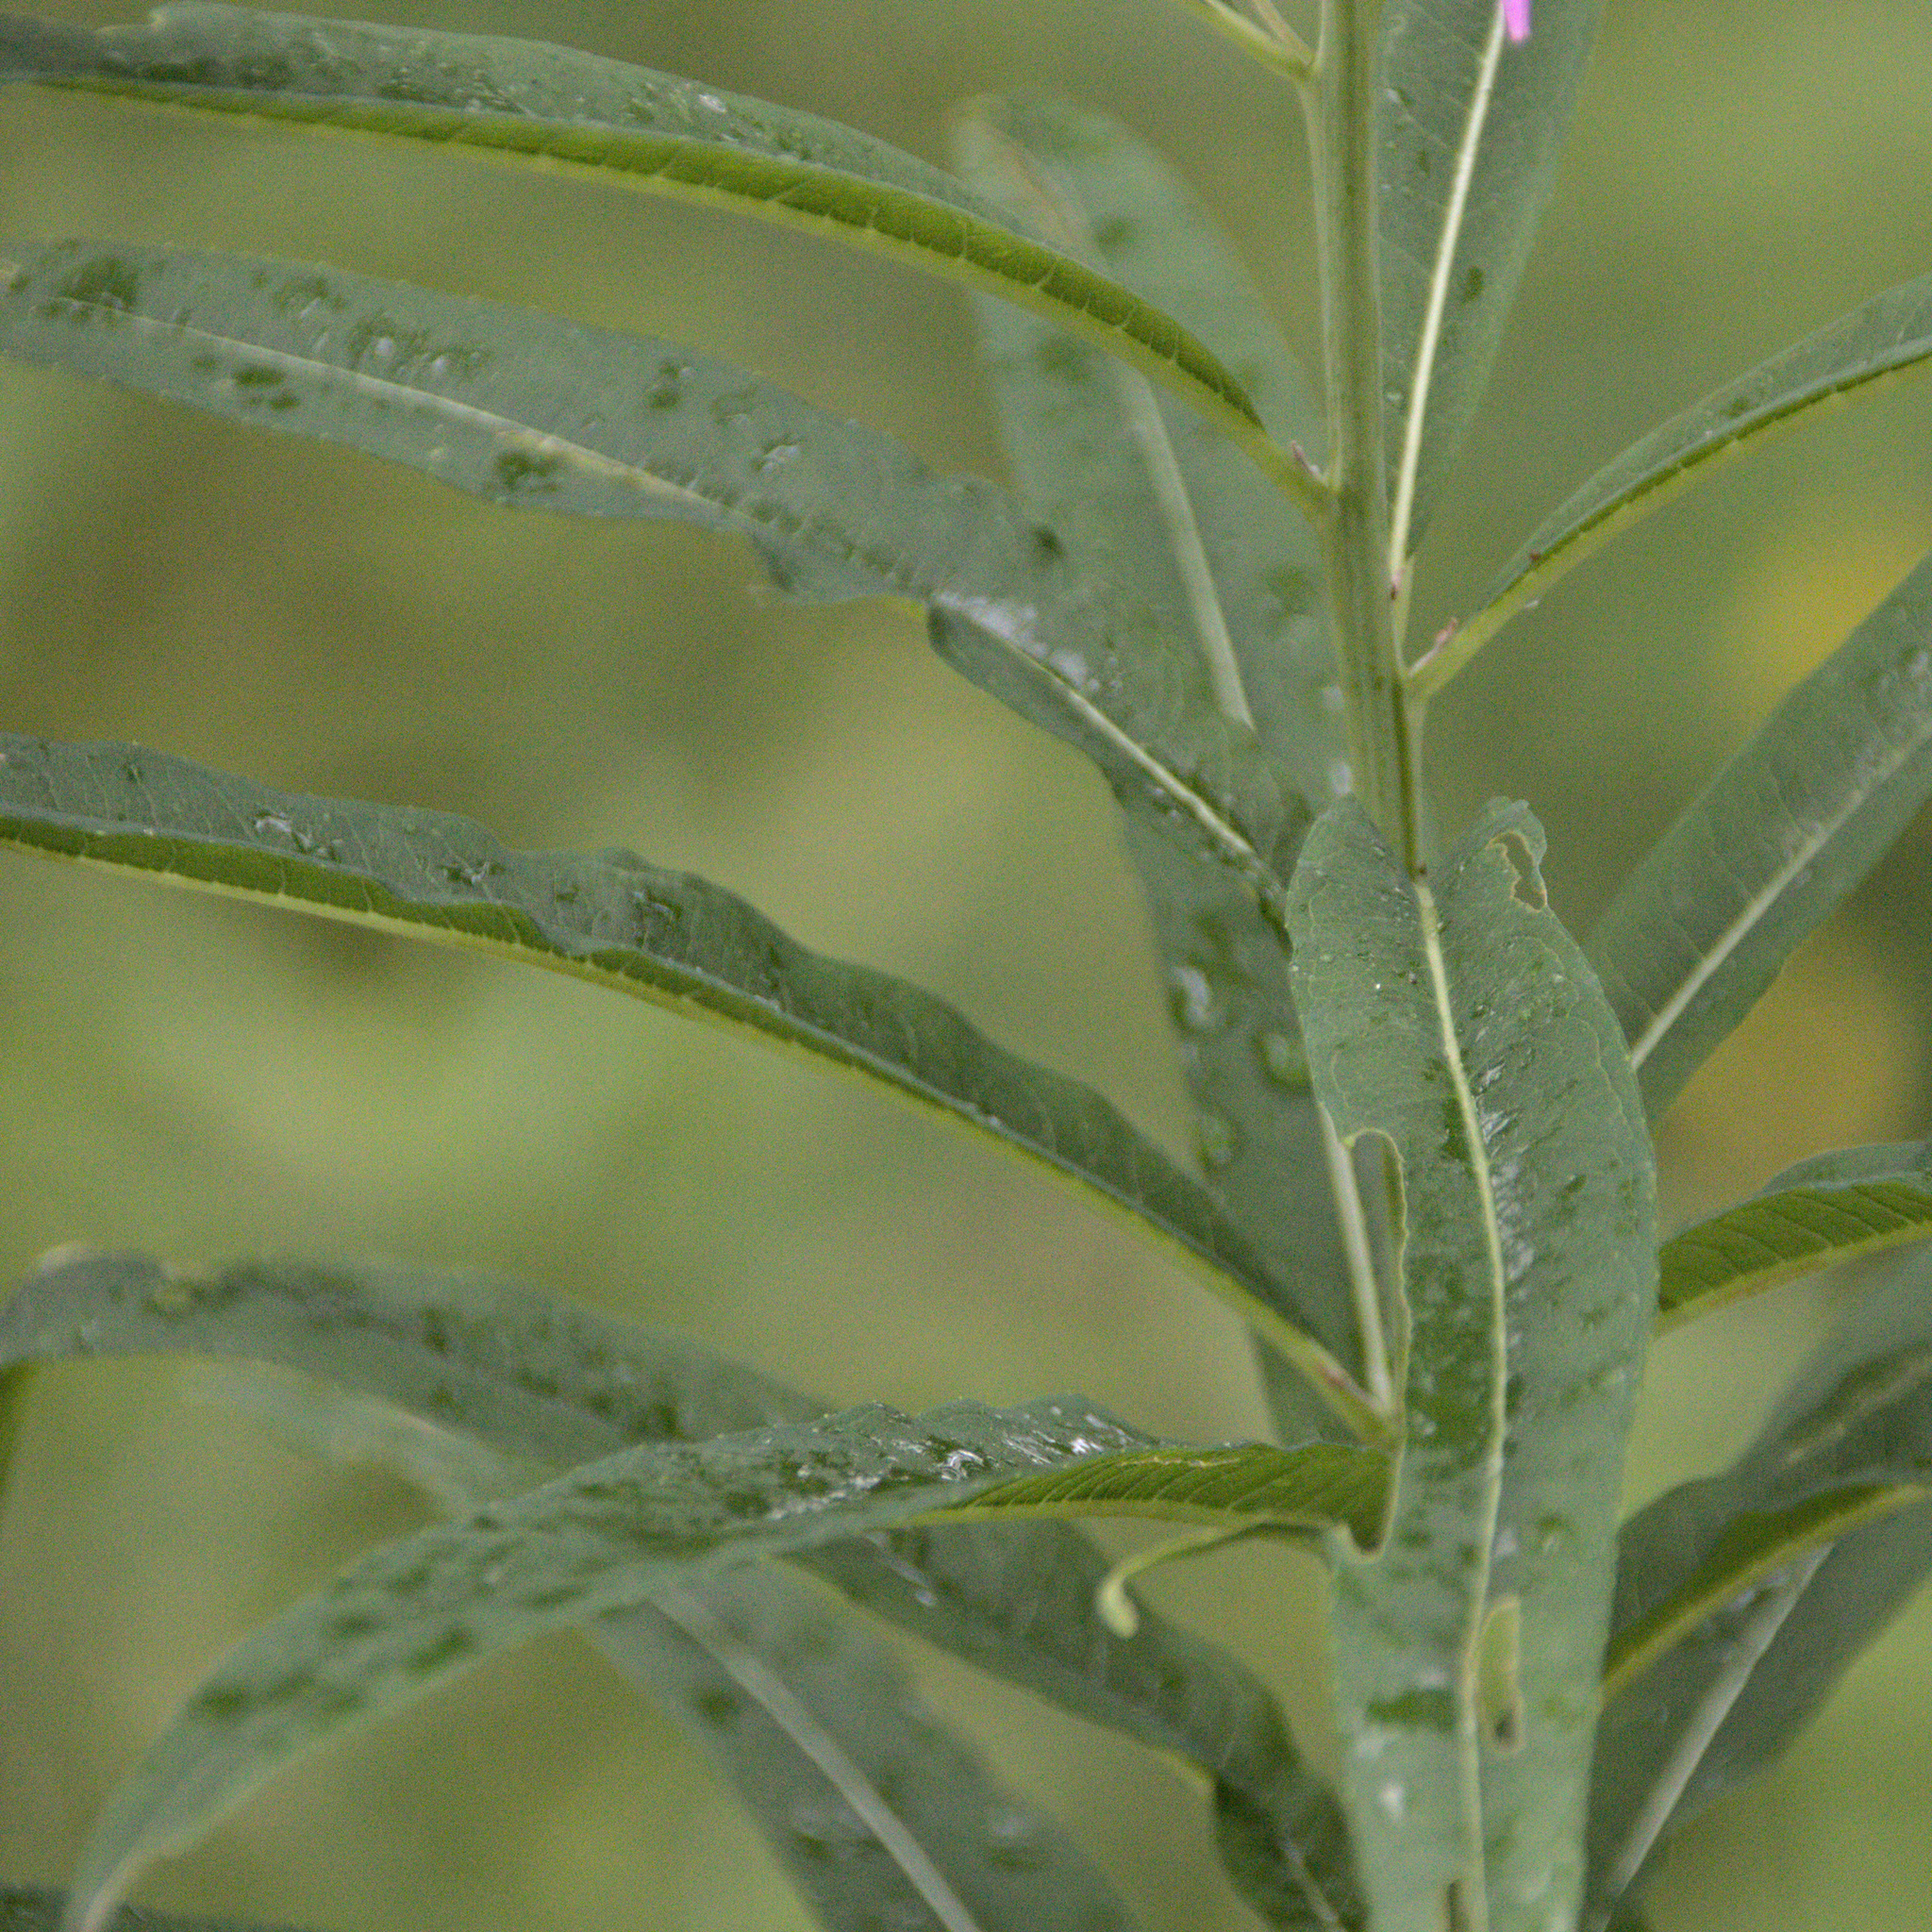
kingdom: Plantae
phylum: Tracheophyta
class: Magnoliopsida
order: Myrtales
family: Onagraceae
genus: Chamaenerion
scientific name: Chamaenerion angustifolium
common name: Fireweed
